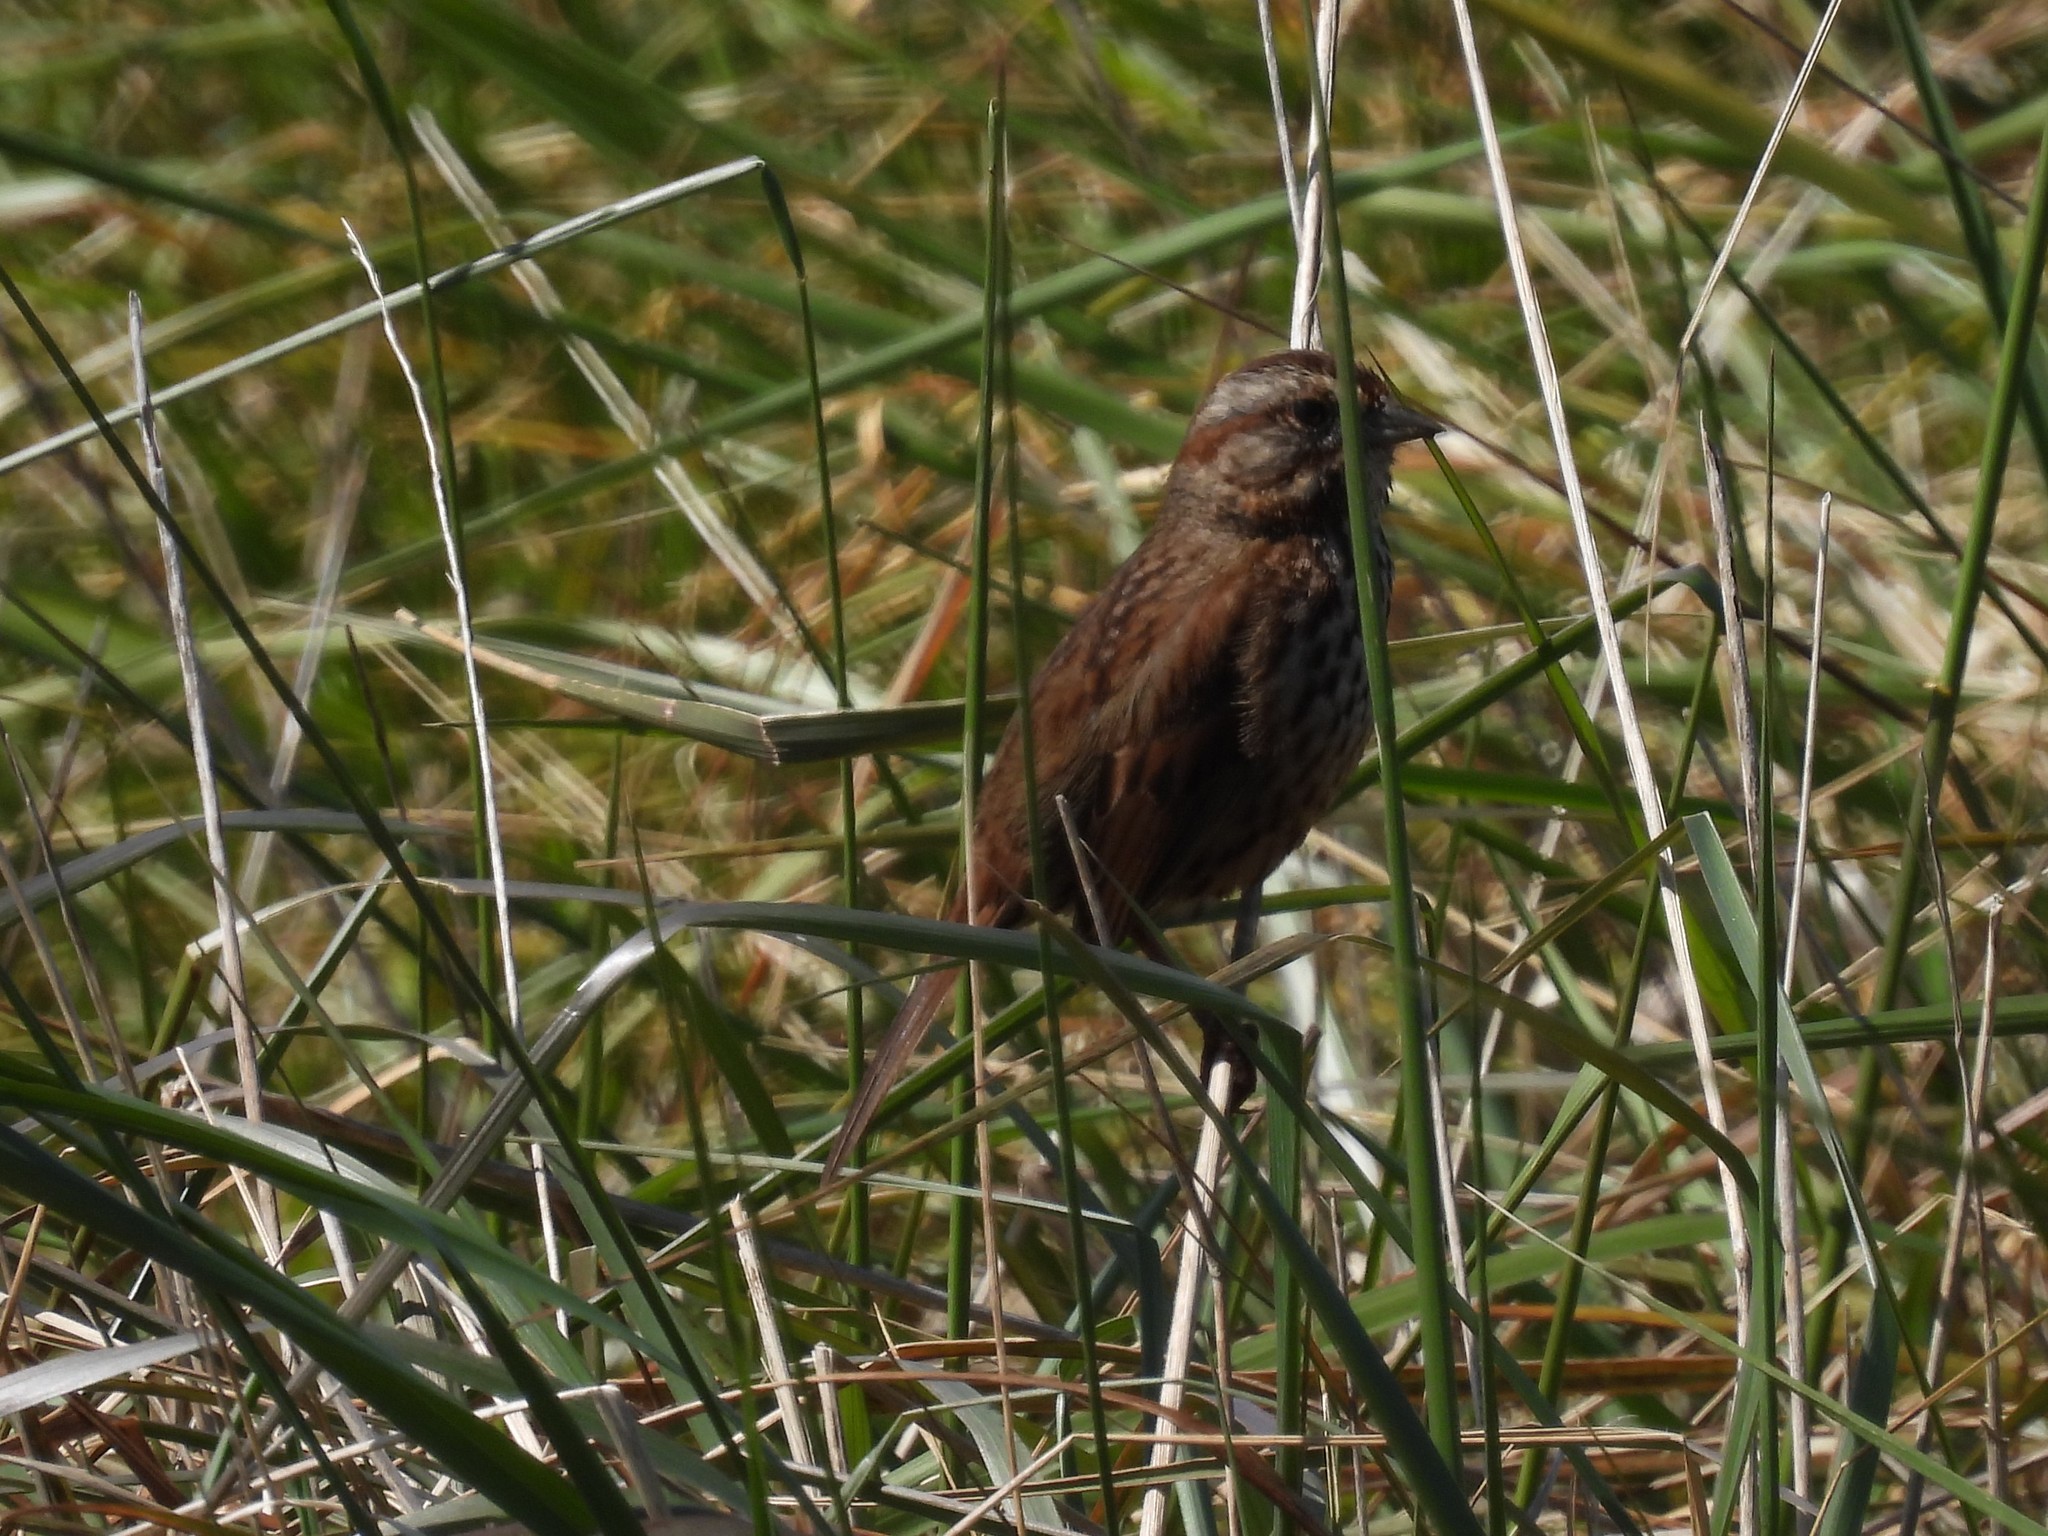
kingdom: Animalia
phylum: Chordata
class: Aves
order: Passeriformes
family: Passerellidae
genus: Melospiza
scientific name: Melospiza melodia
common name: Song sparrow
